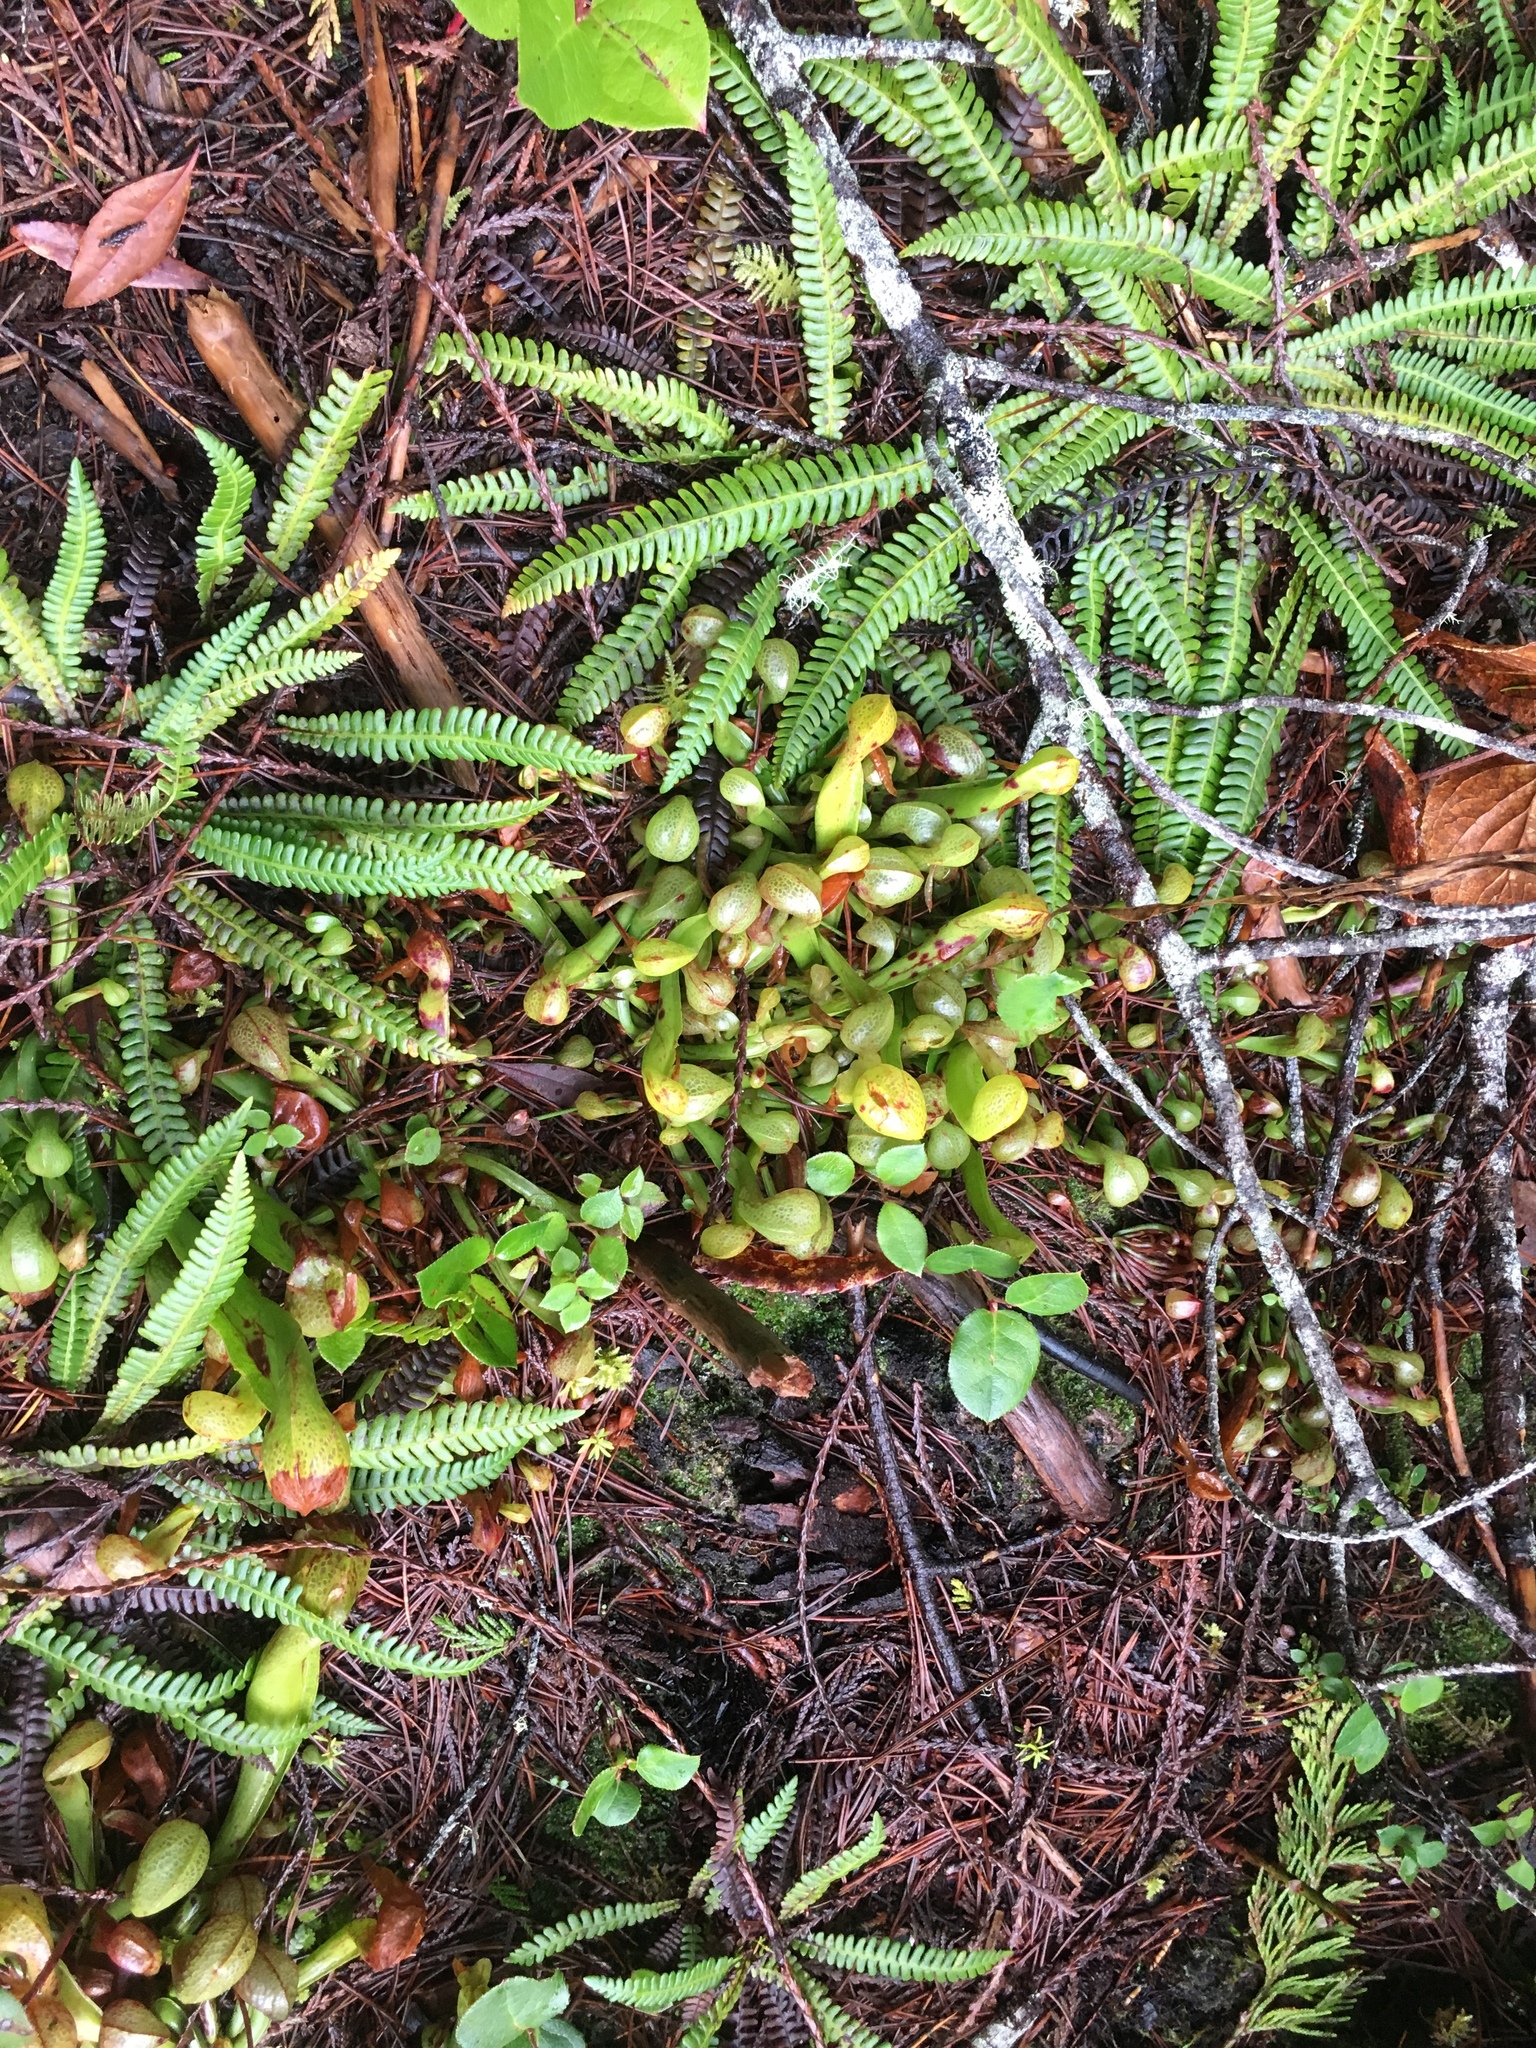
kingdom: Plantae
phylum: Tracheophyta
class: Polypodiopsida
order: Polypodiales
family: Blechnaceae
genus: Struthiopteris
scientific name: Struthiopteris spicant
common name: Deer fern
